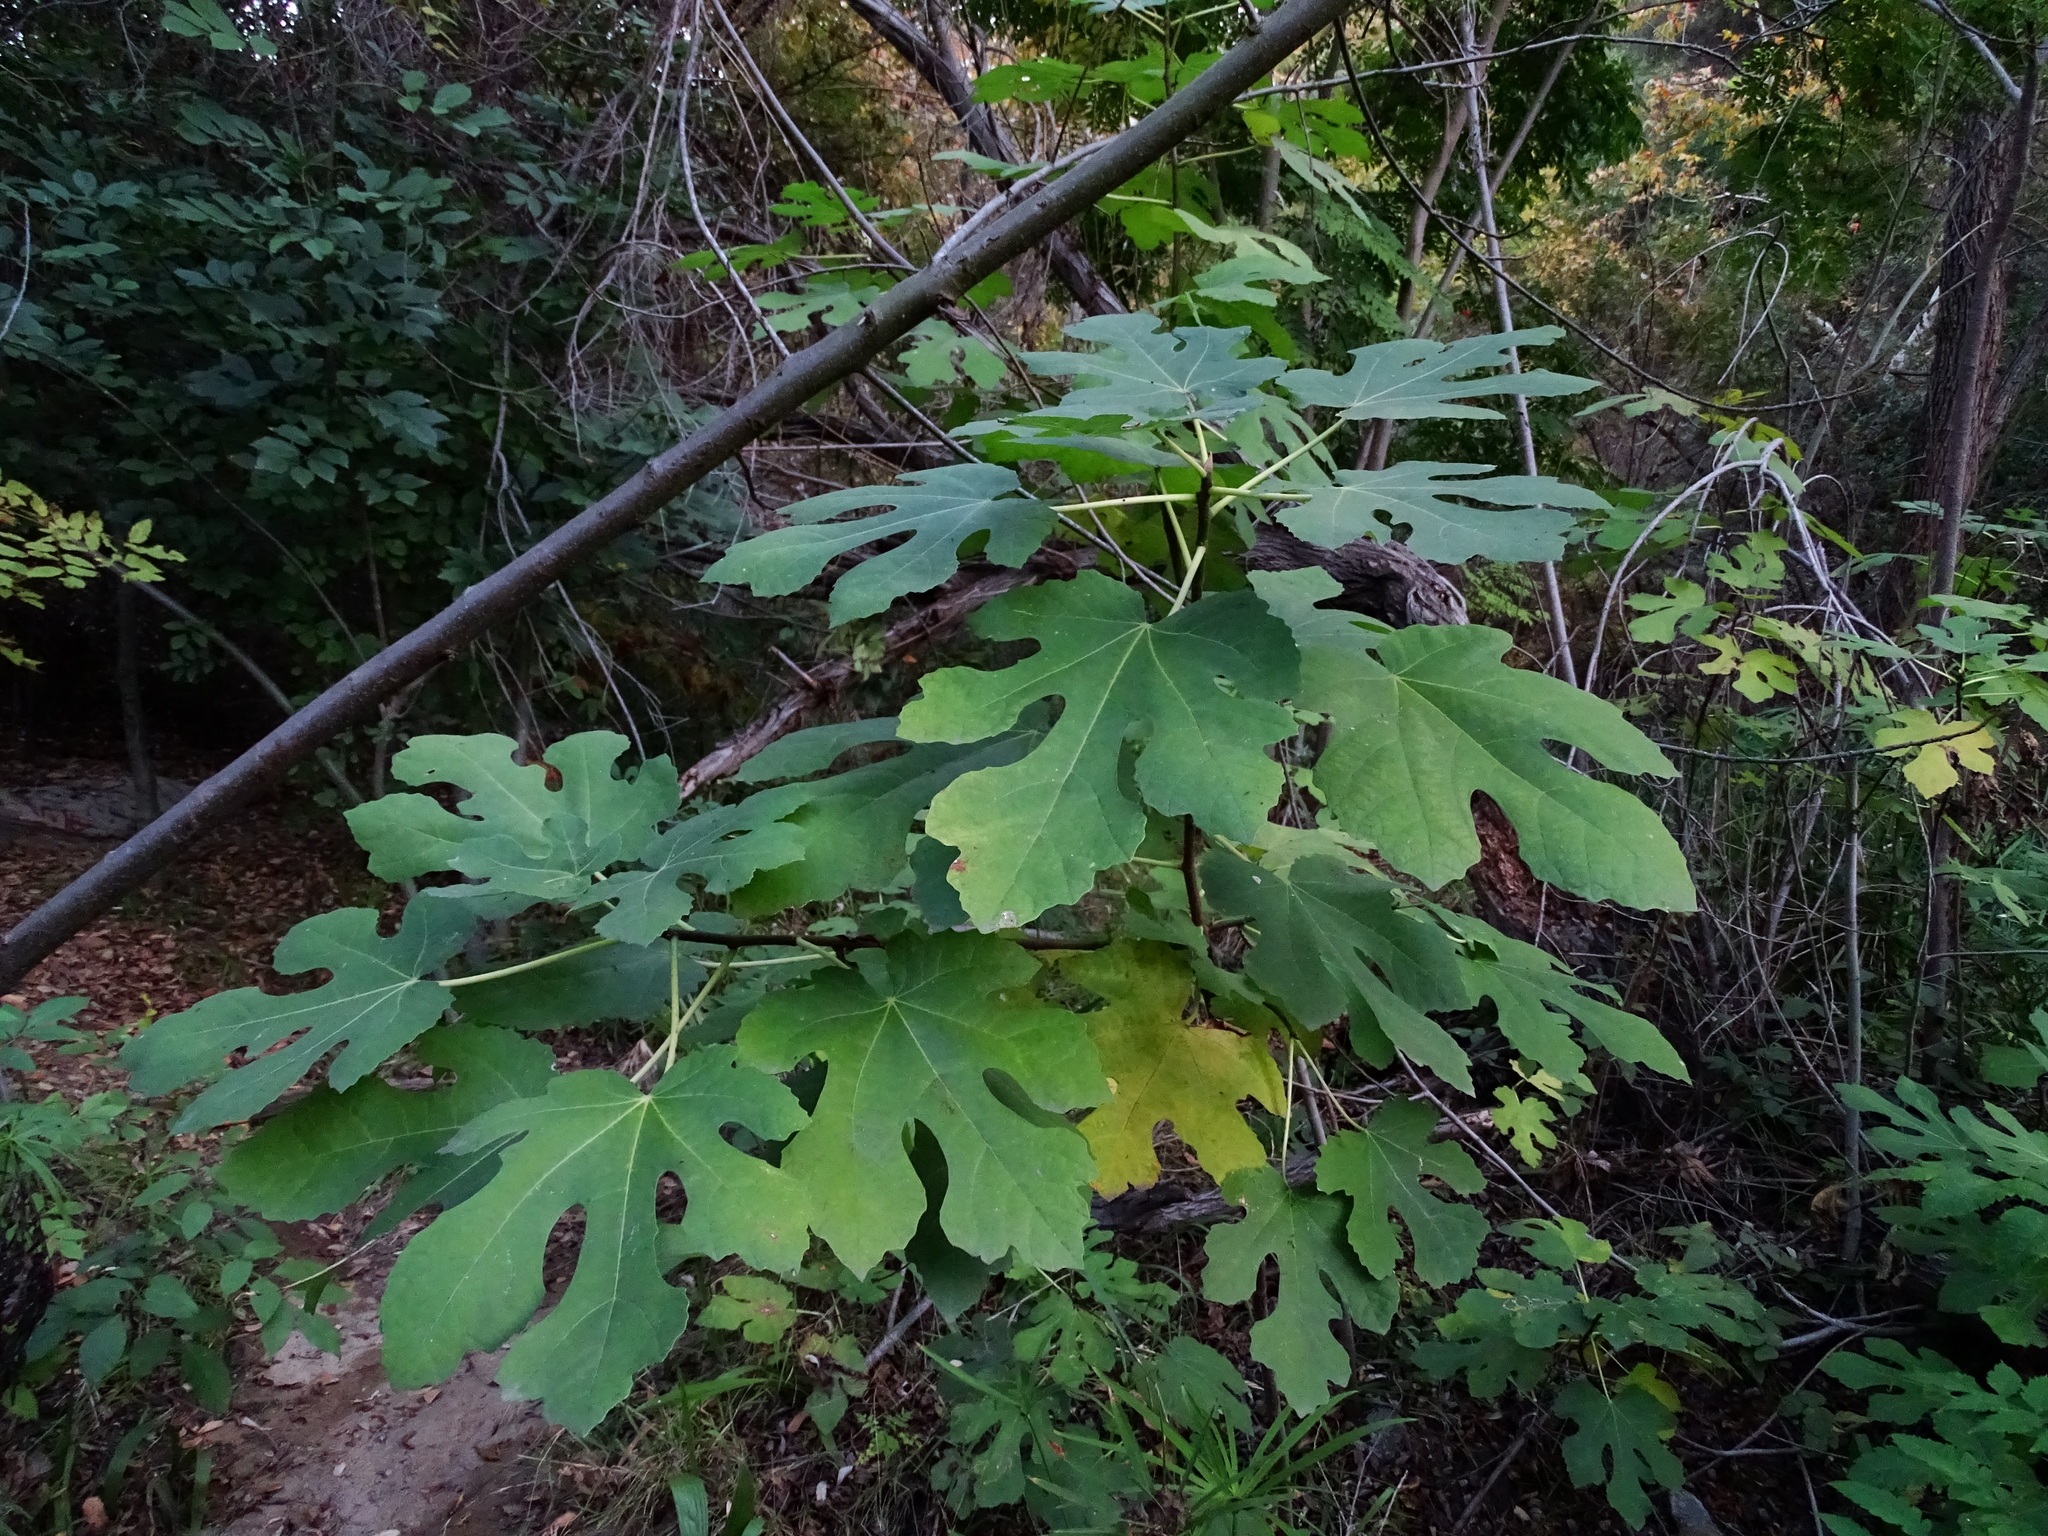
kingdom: Plantae
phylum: Tracheophyta
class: Magnoliopsida
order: Rosales
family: Moraceae
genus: Ficus
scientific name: Ficus carica
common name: Fig
